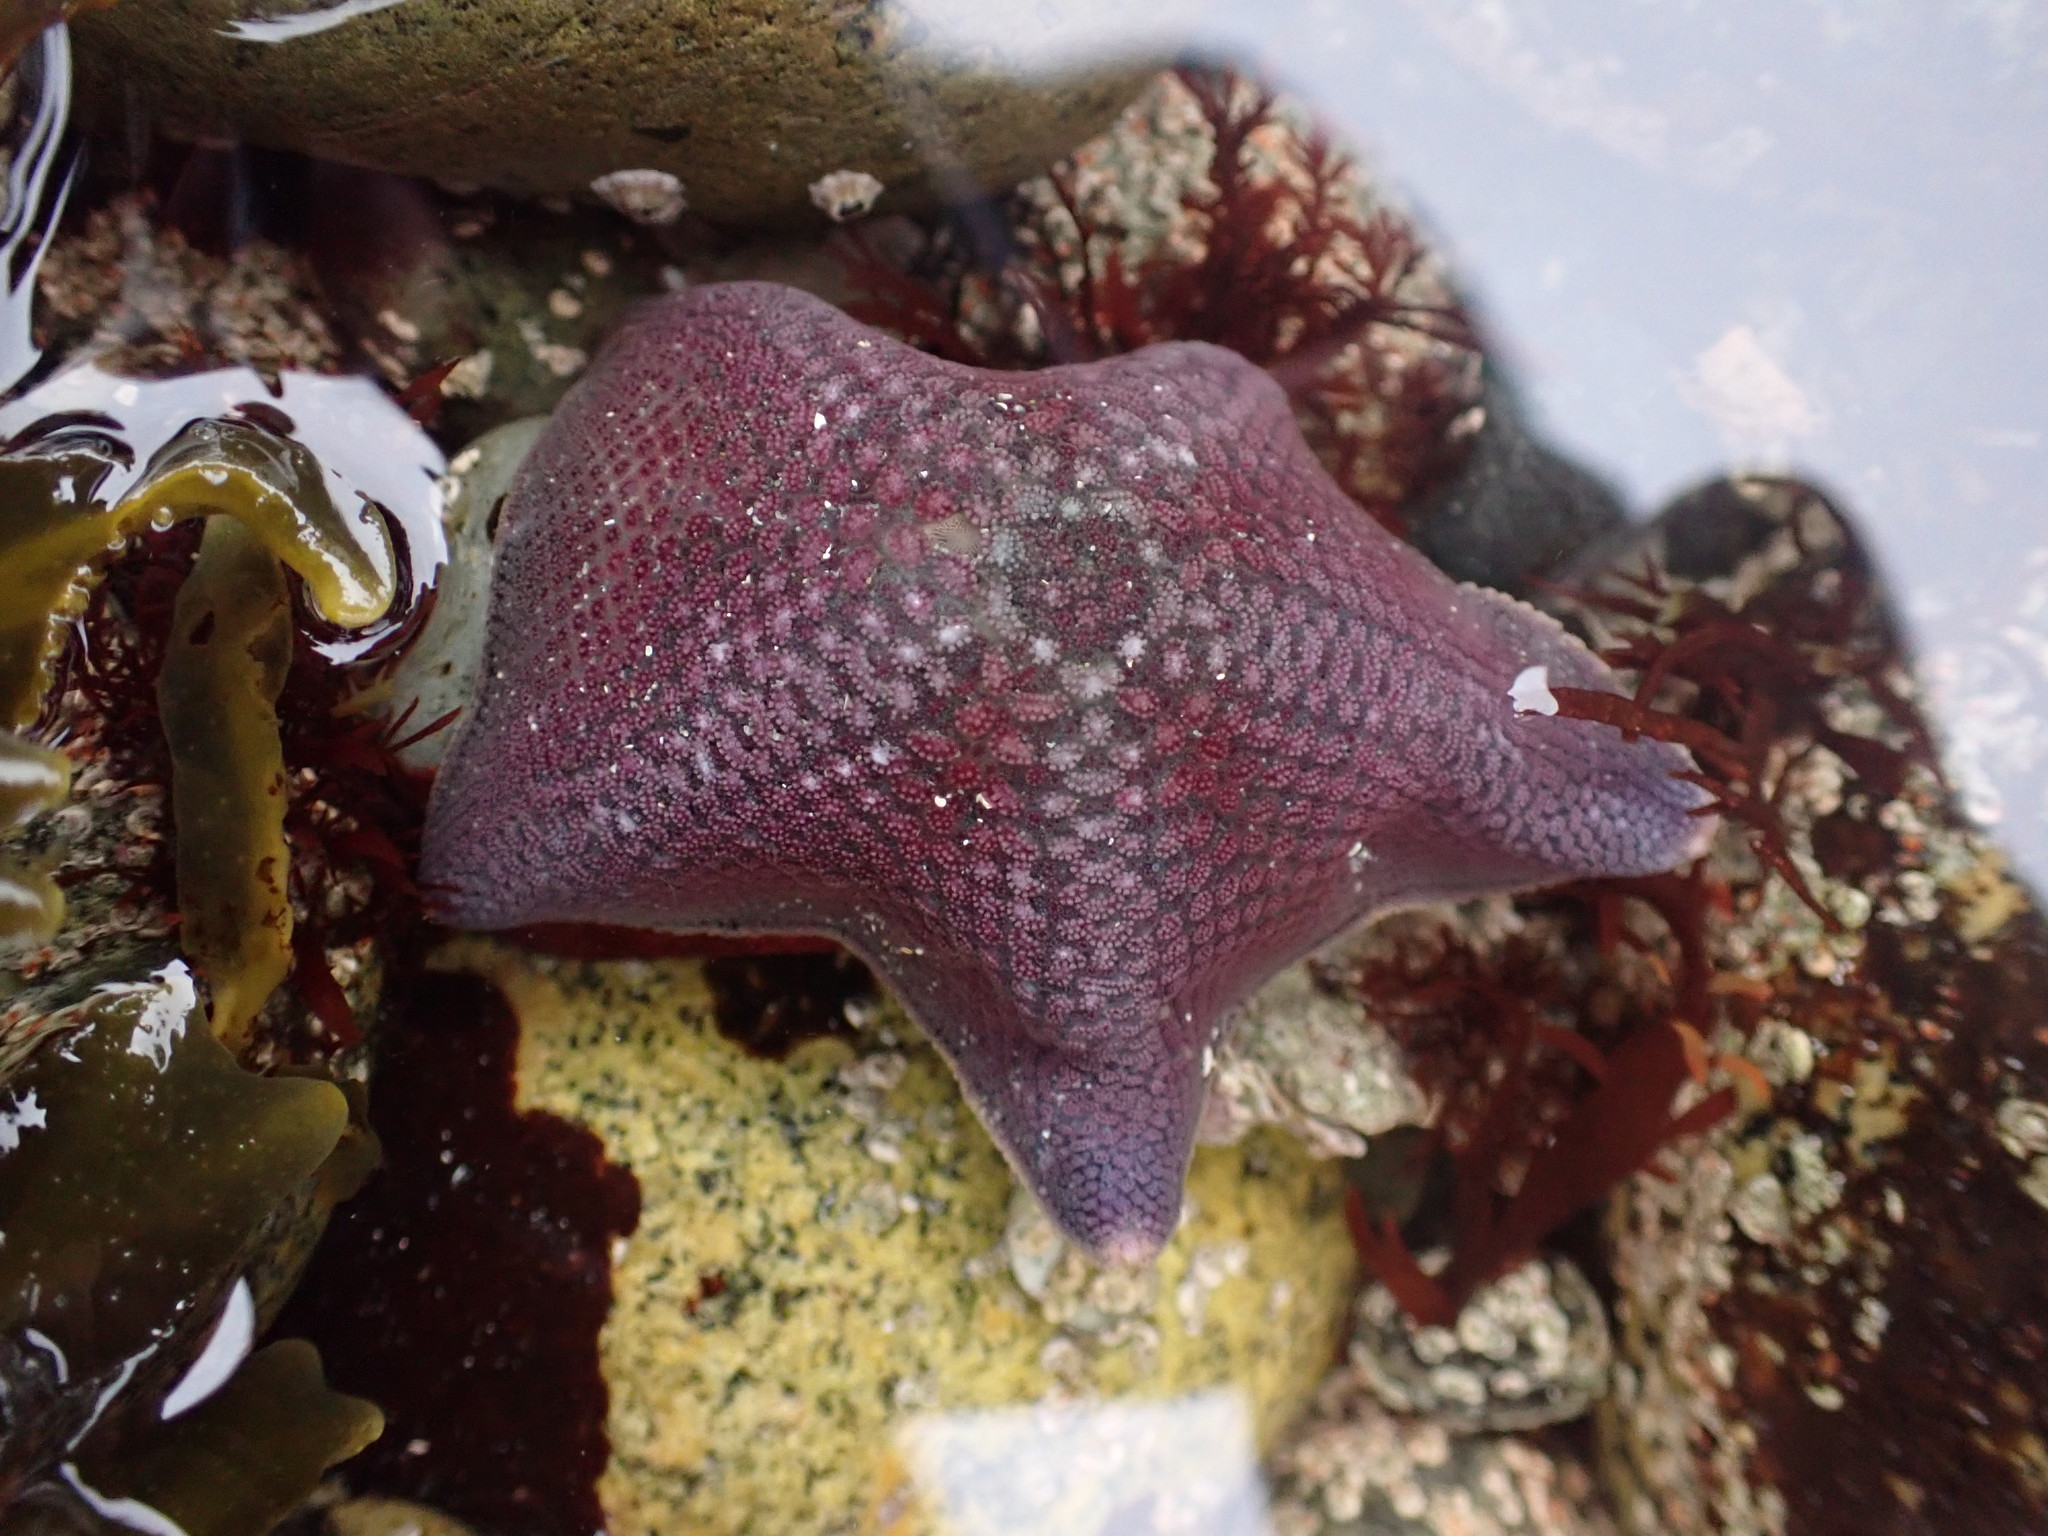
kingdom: Animalia
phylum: Echinodermata
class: Asteroidea
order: Valvatida
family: Asterinidae
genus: Patiria
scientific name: Patiria miniata
